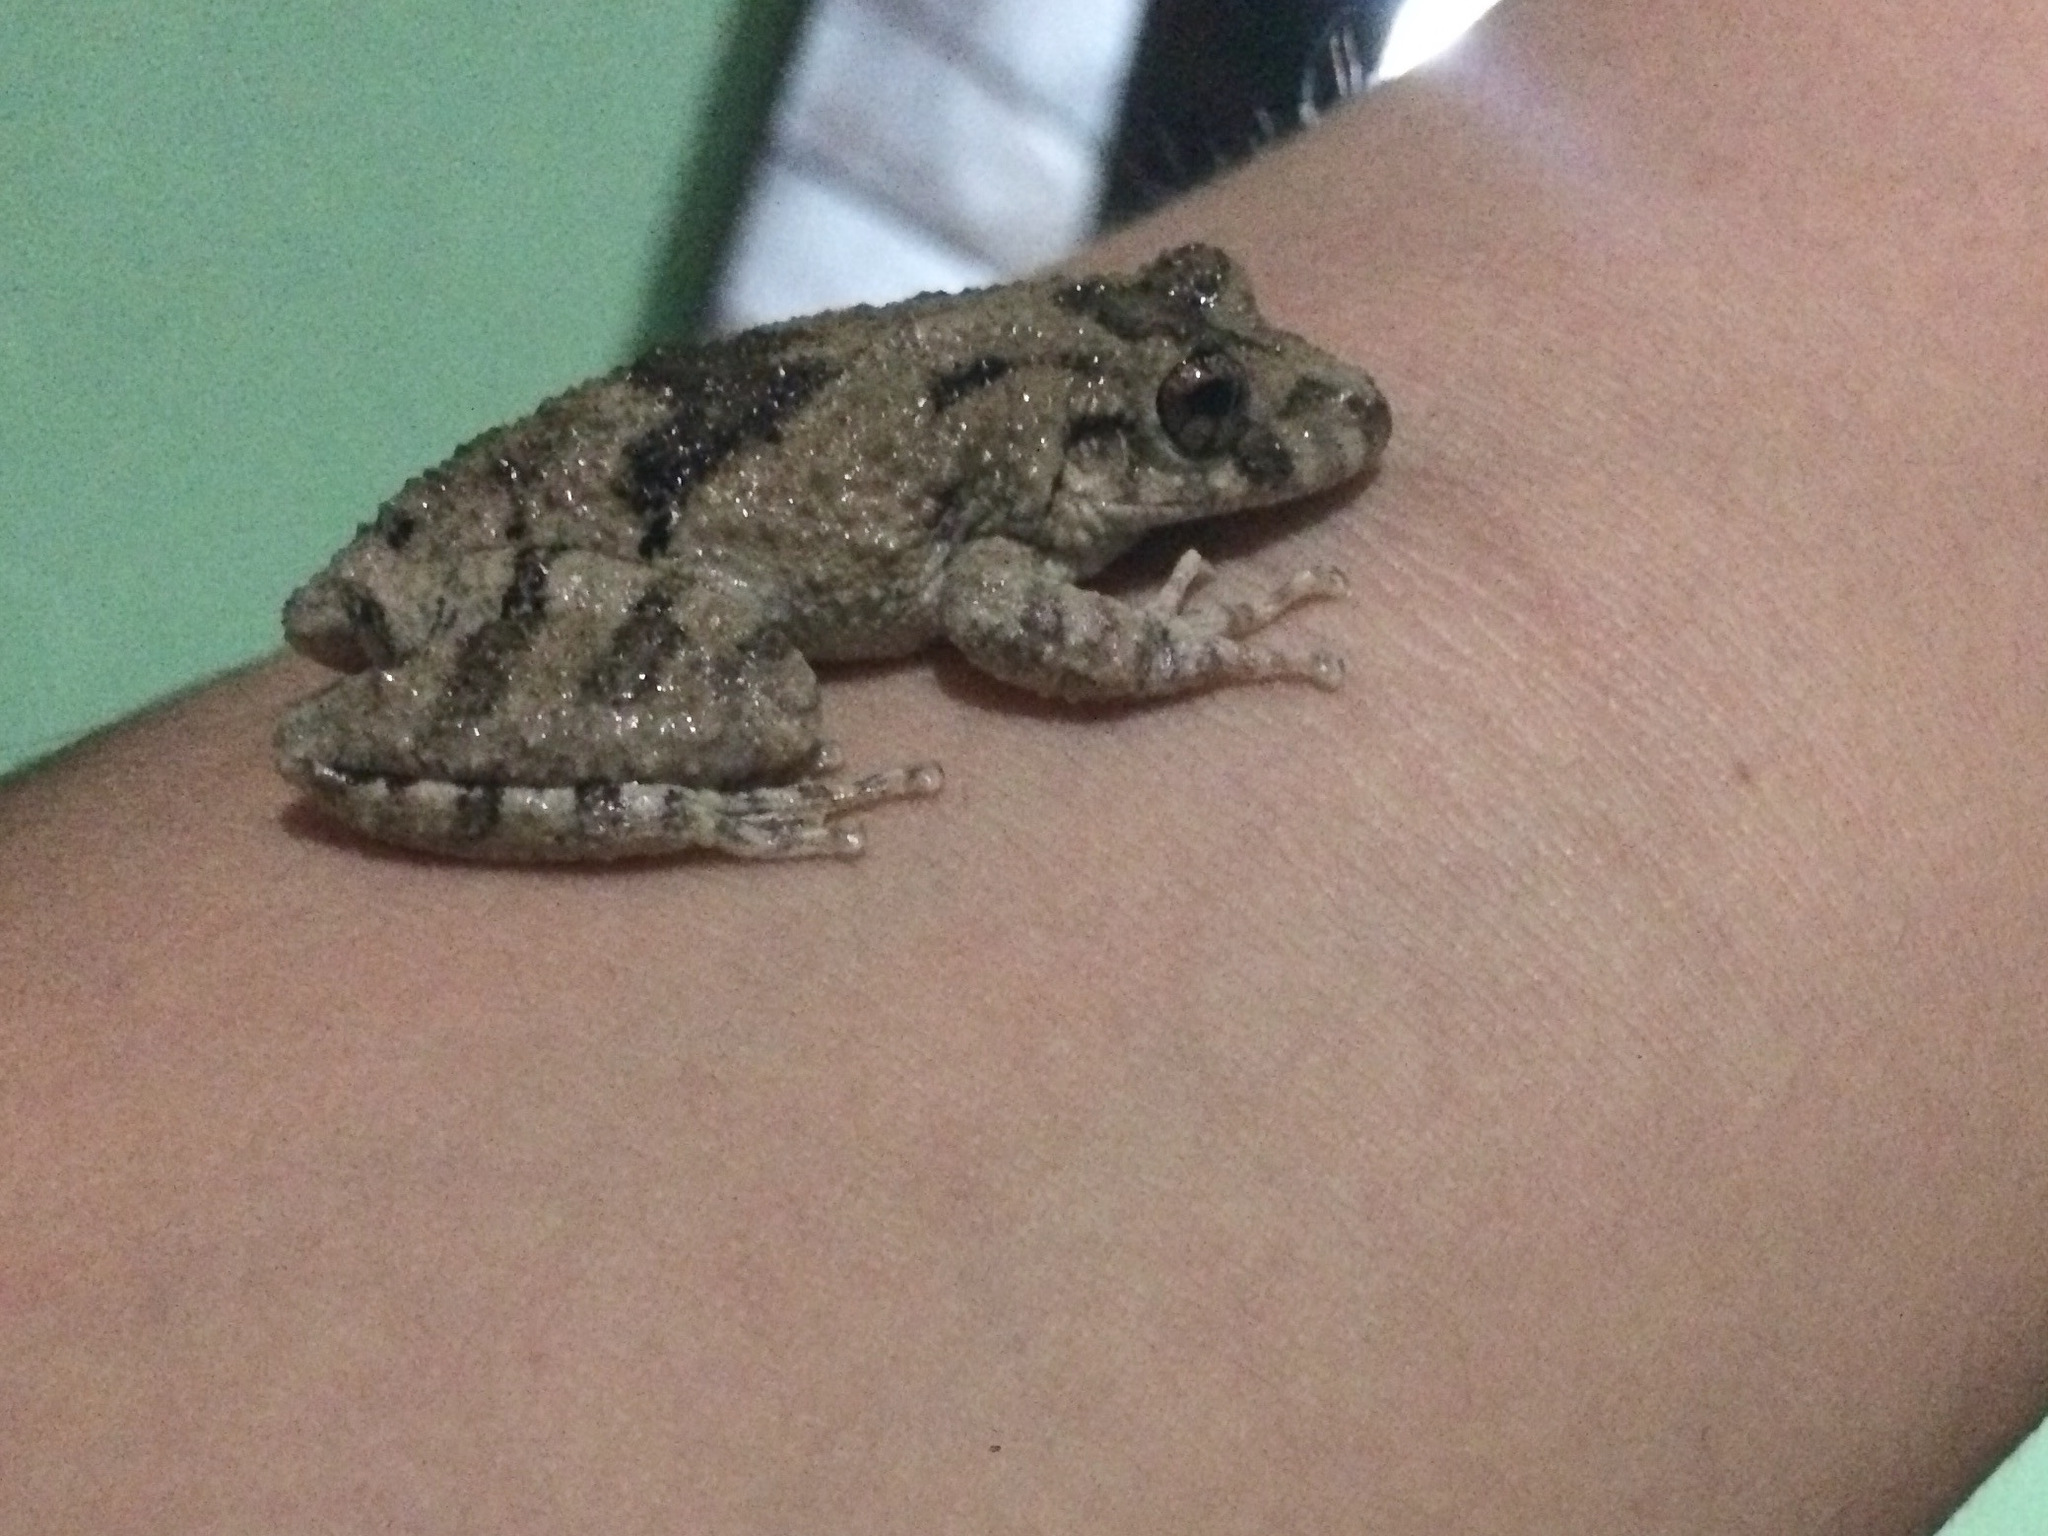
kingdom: Animalia
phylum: Chordata
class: Amphibia
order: Anura
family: Hylidae
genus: Scinax
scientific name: Scinax acuminatus
